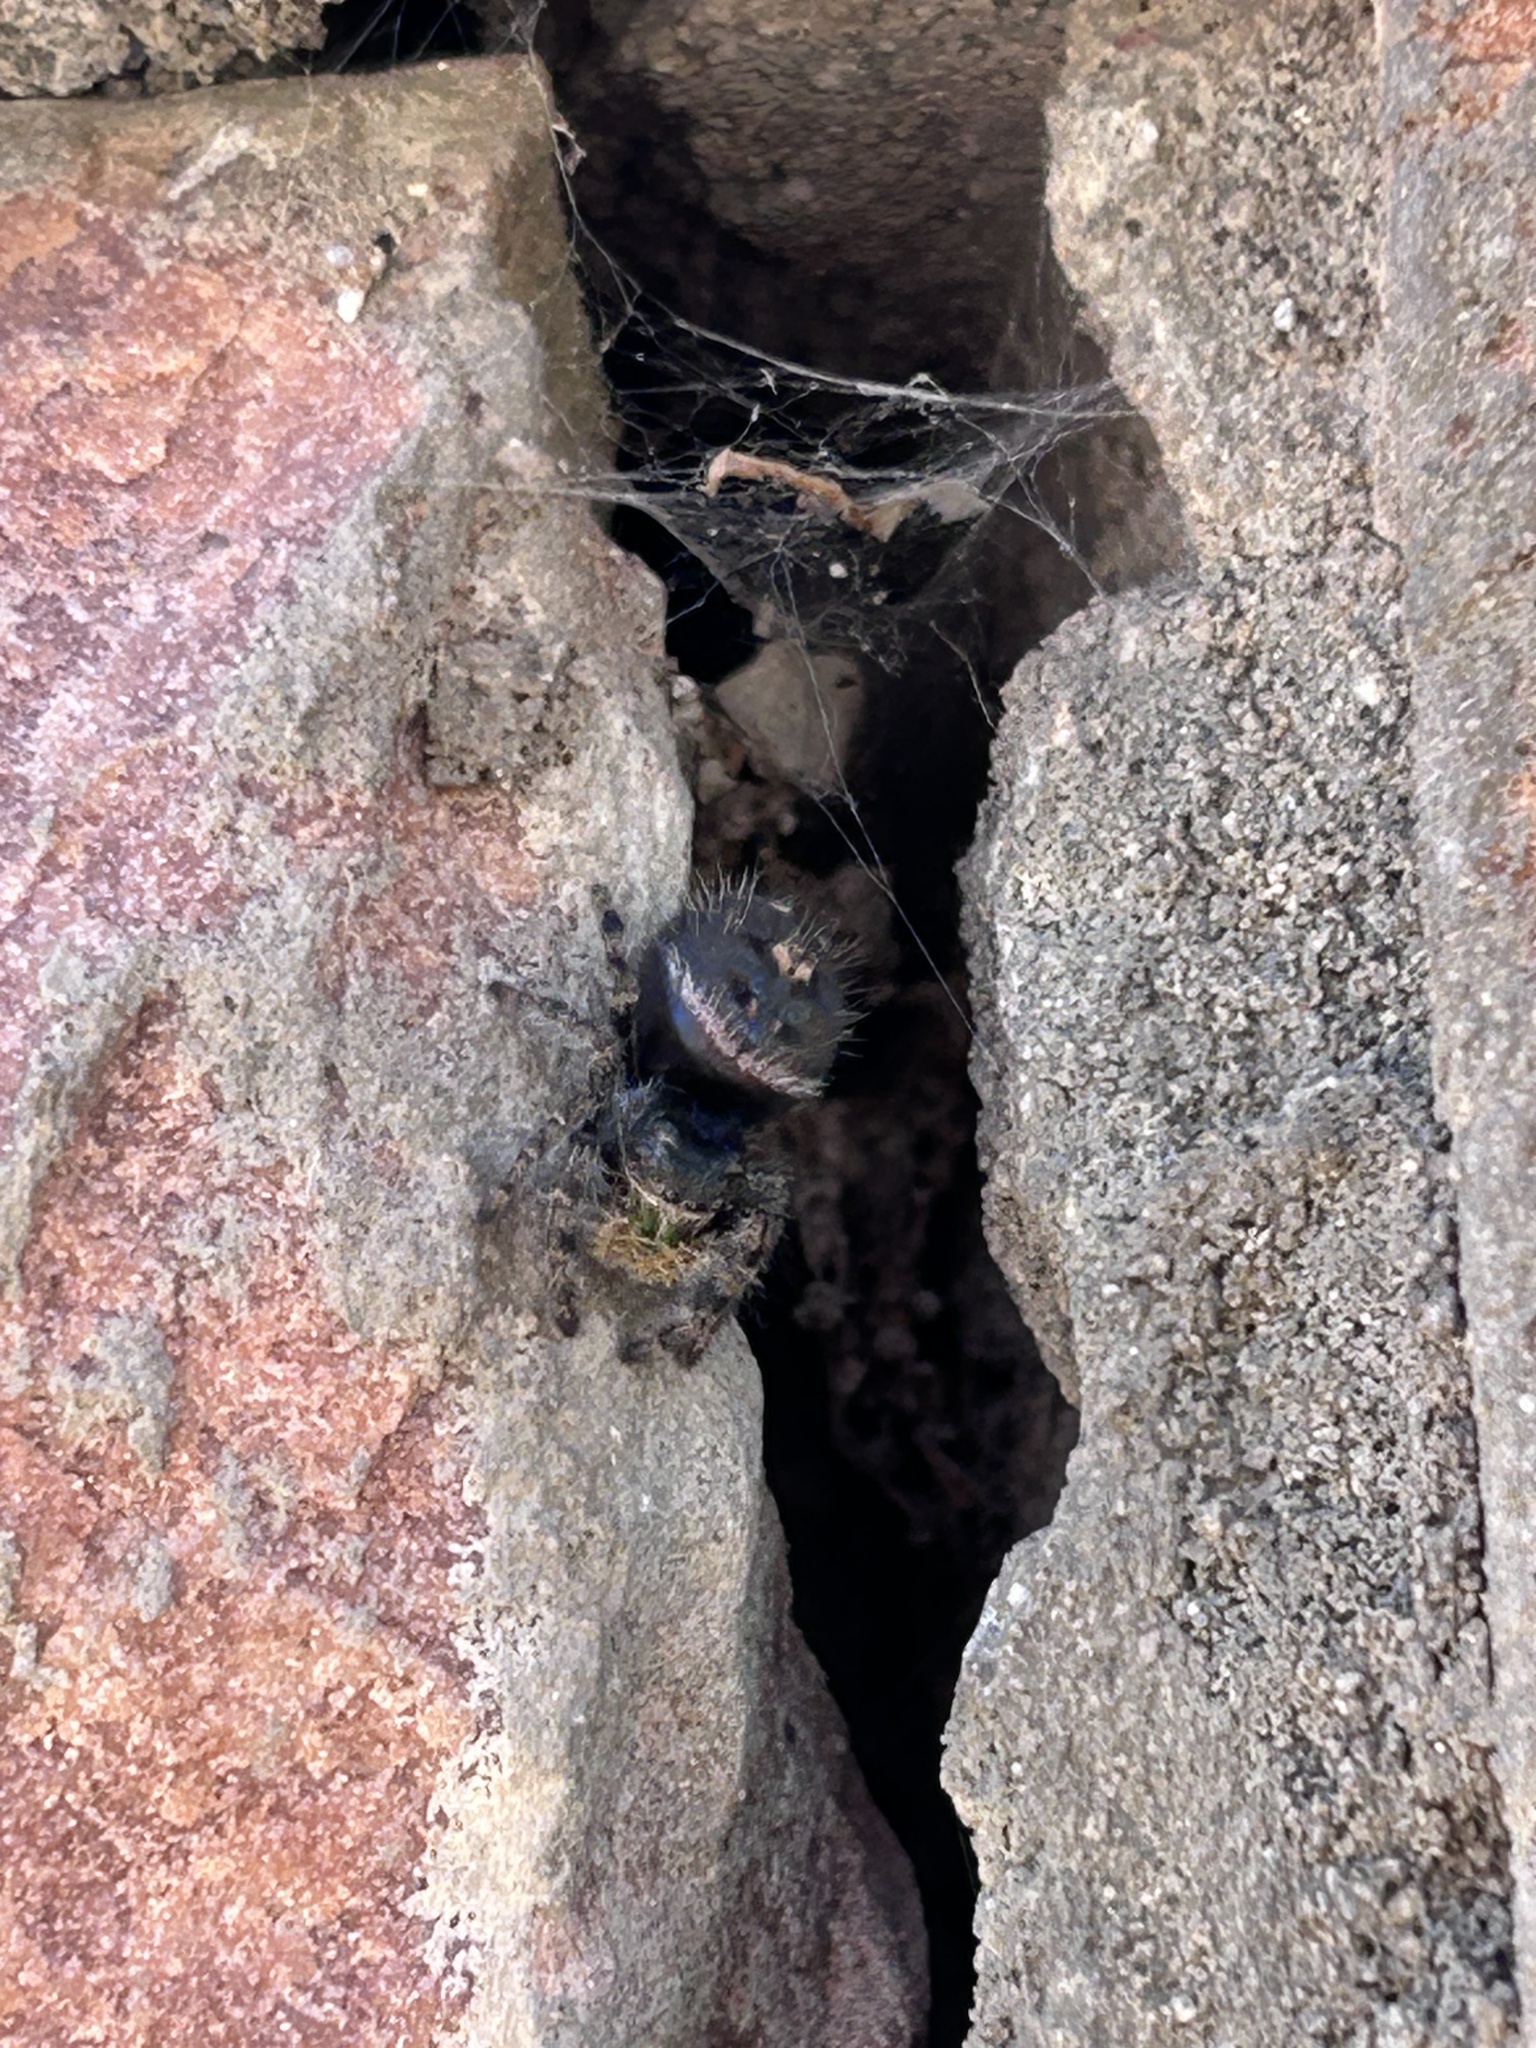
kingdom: Animalia
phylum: Arthropoda
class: Arachnida
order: Araneae
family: Salticidae
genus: Phidippus
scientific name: Phidippus audax
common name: Bold jumper
